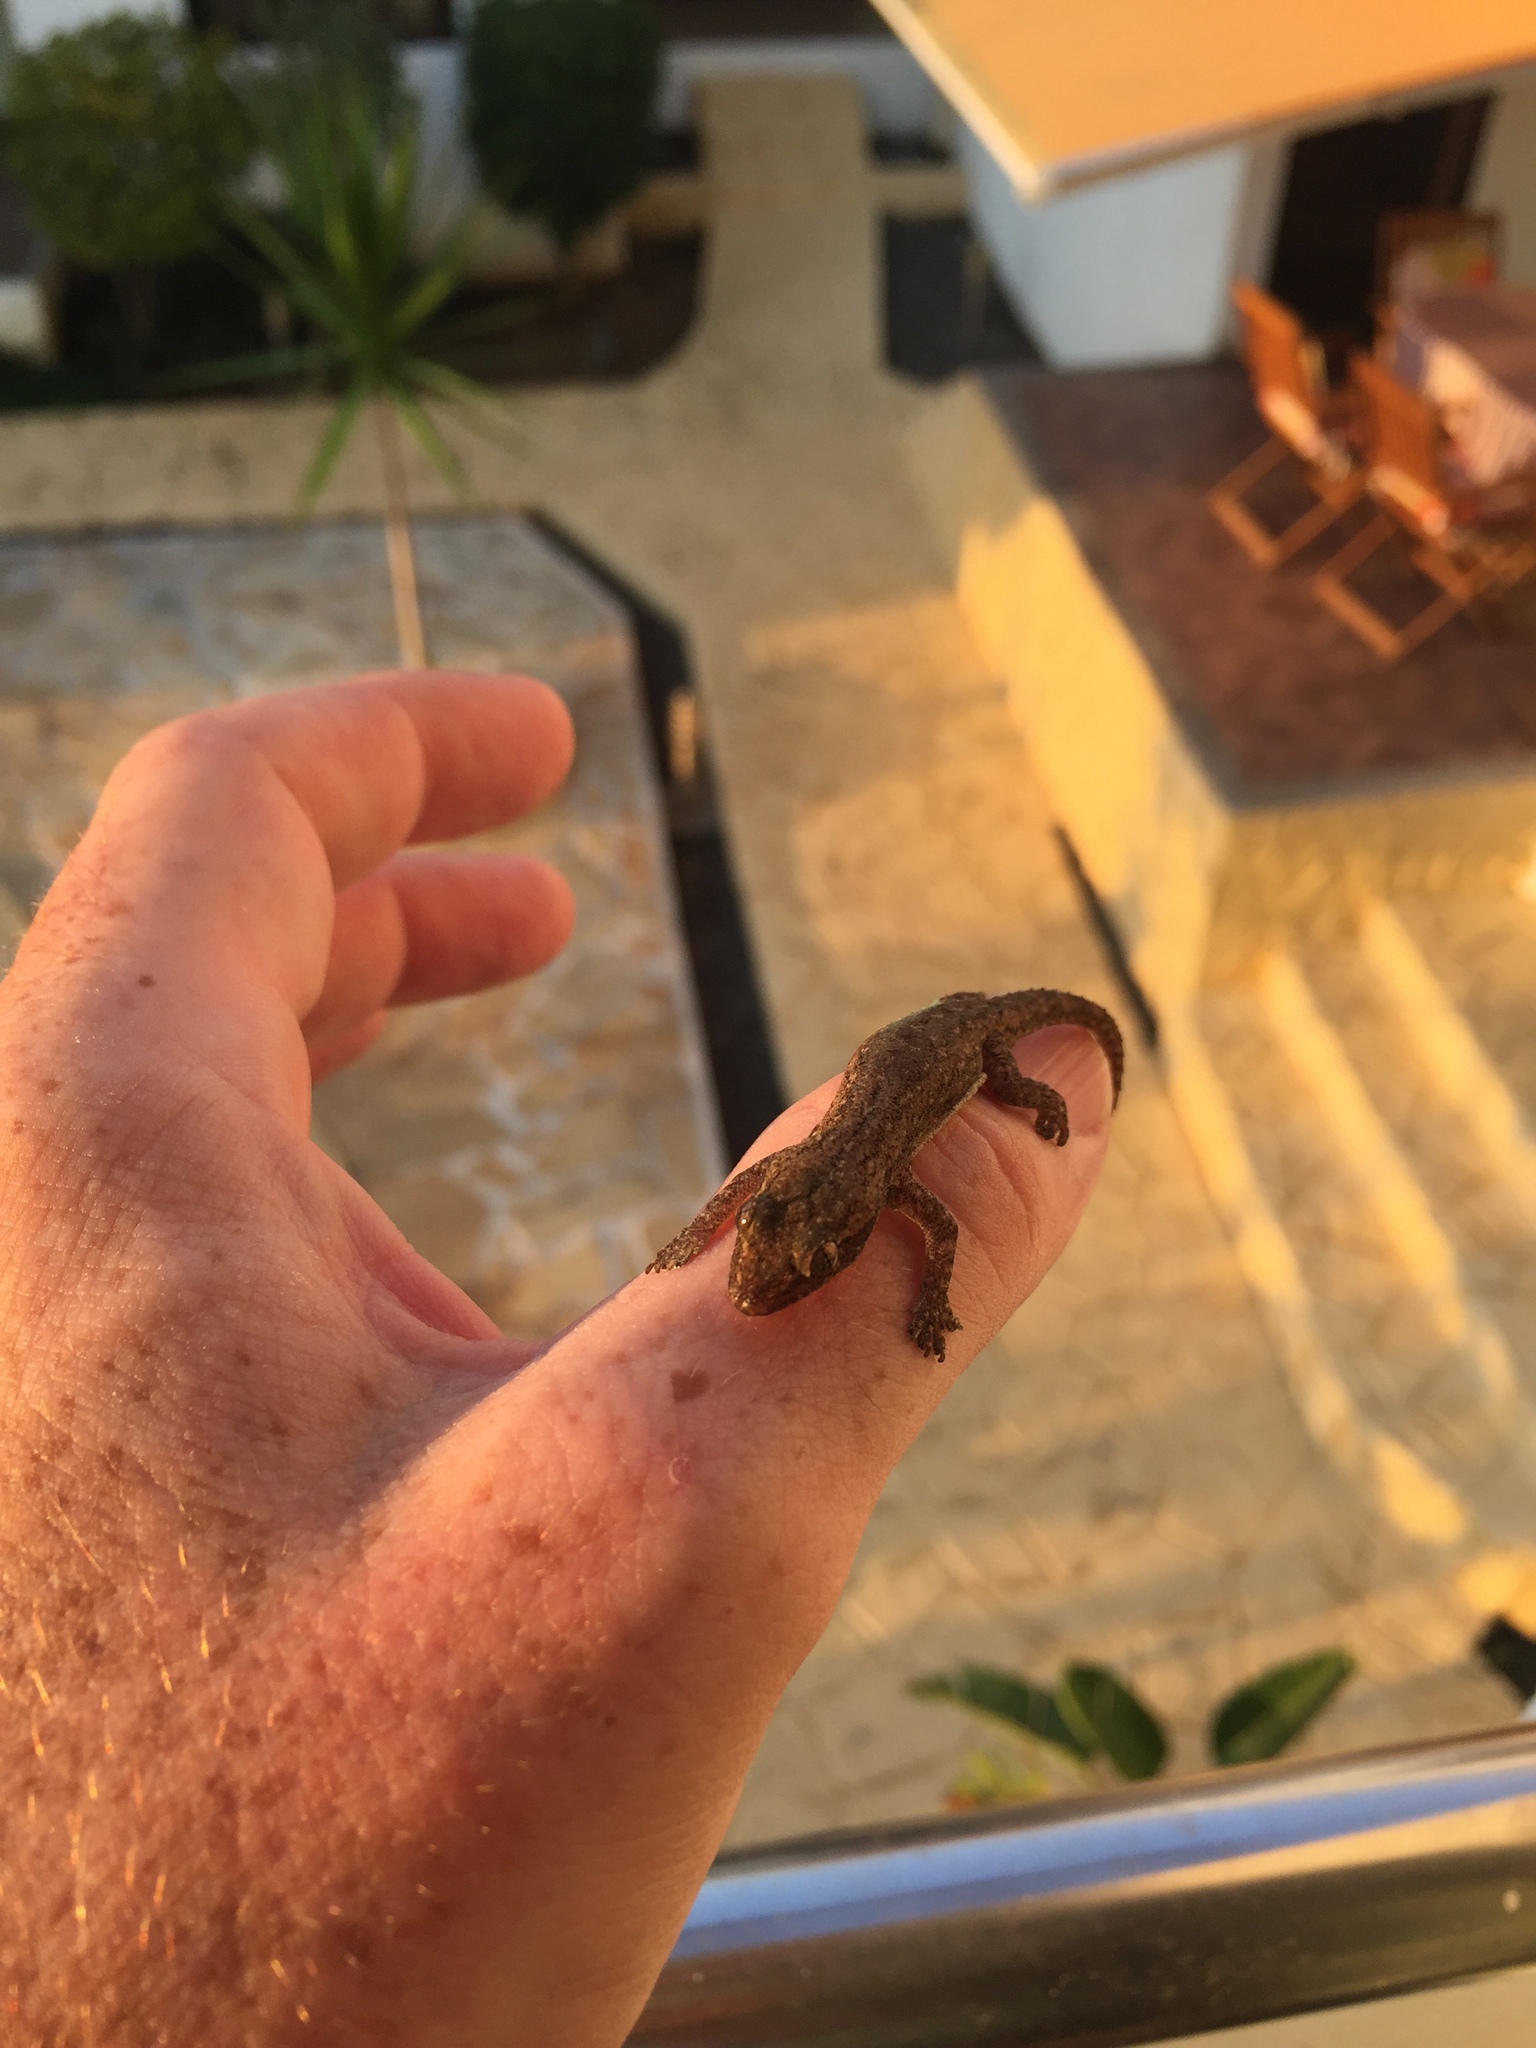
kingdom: Animalia
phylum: Chordata
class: Squamata
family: Gekkonidae
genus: Hemidactylus
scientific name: Hemidactylus frenatus
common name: Common house gecko
